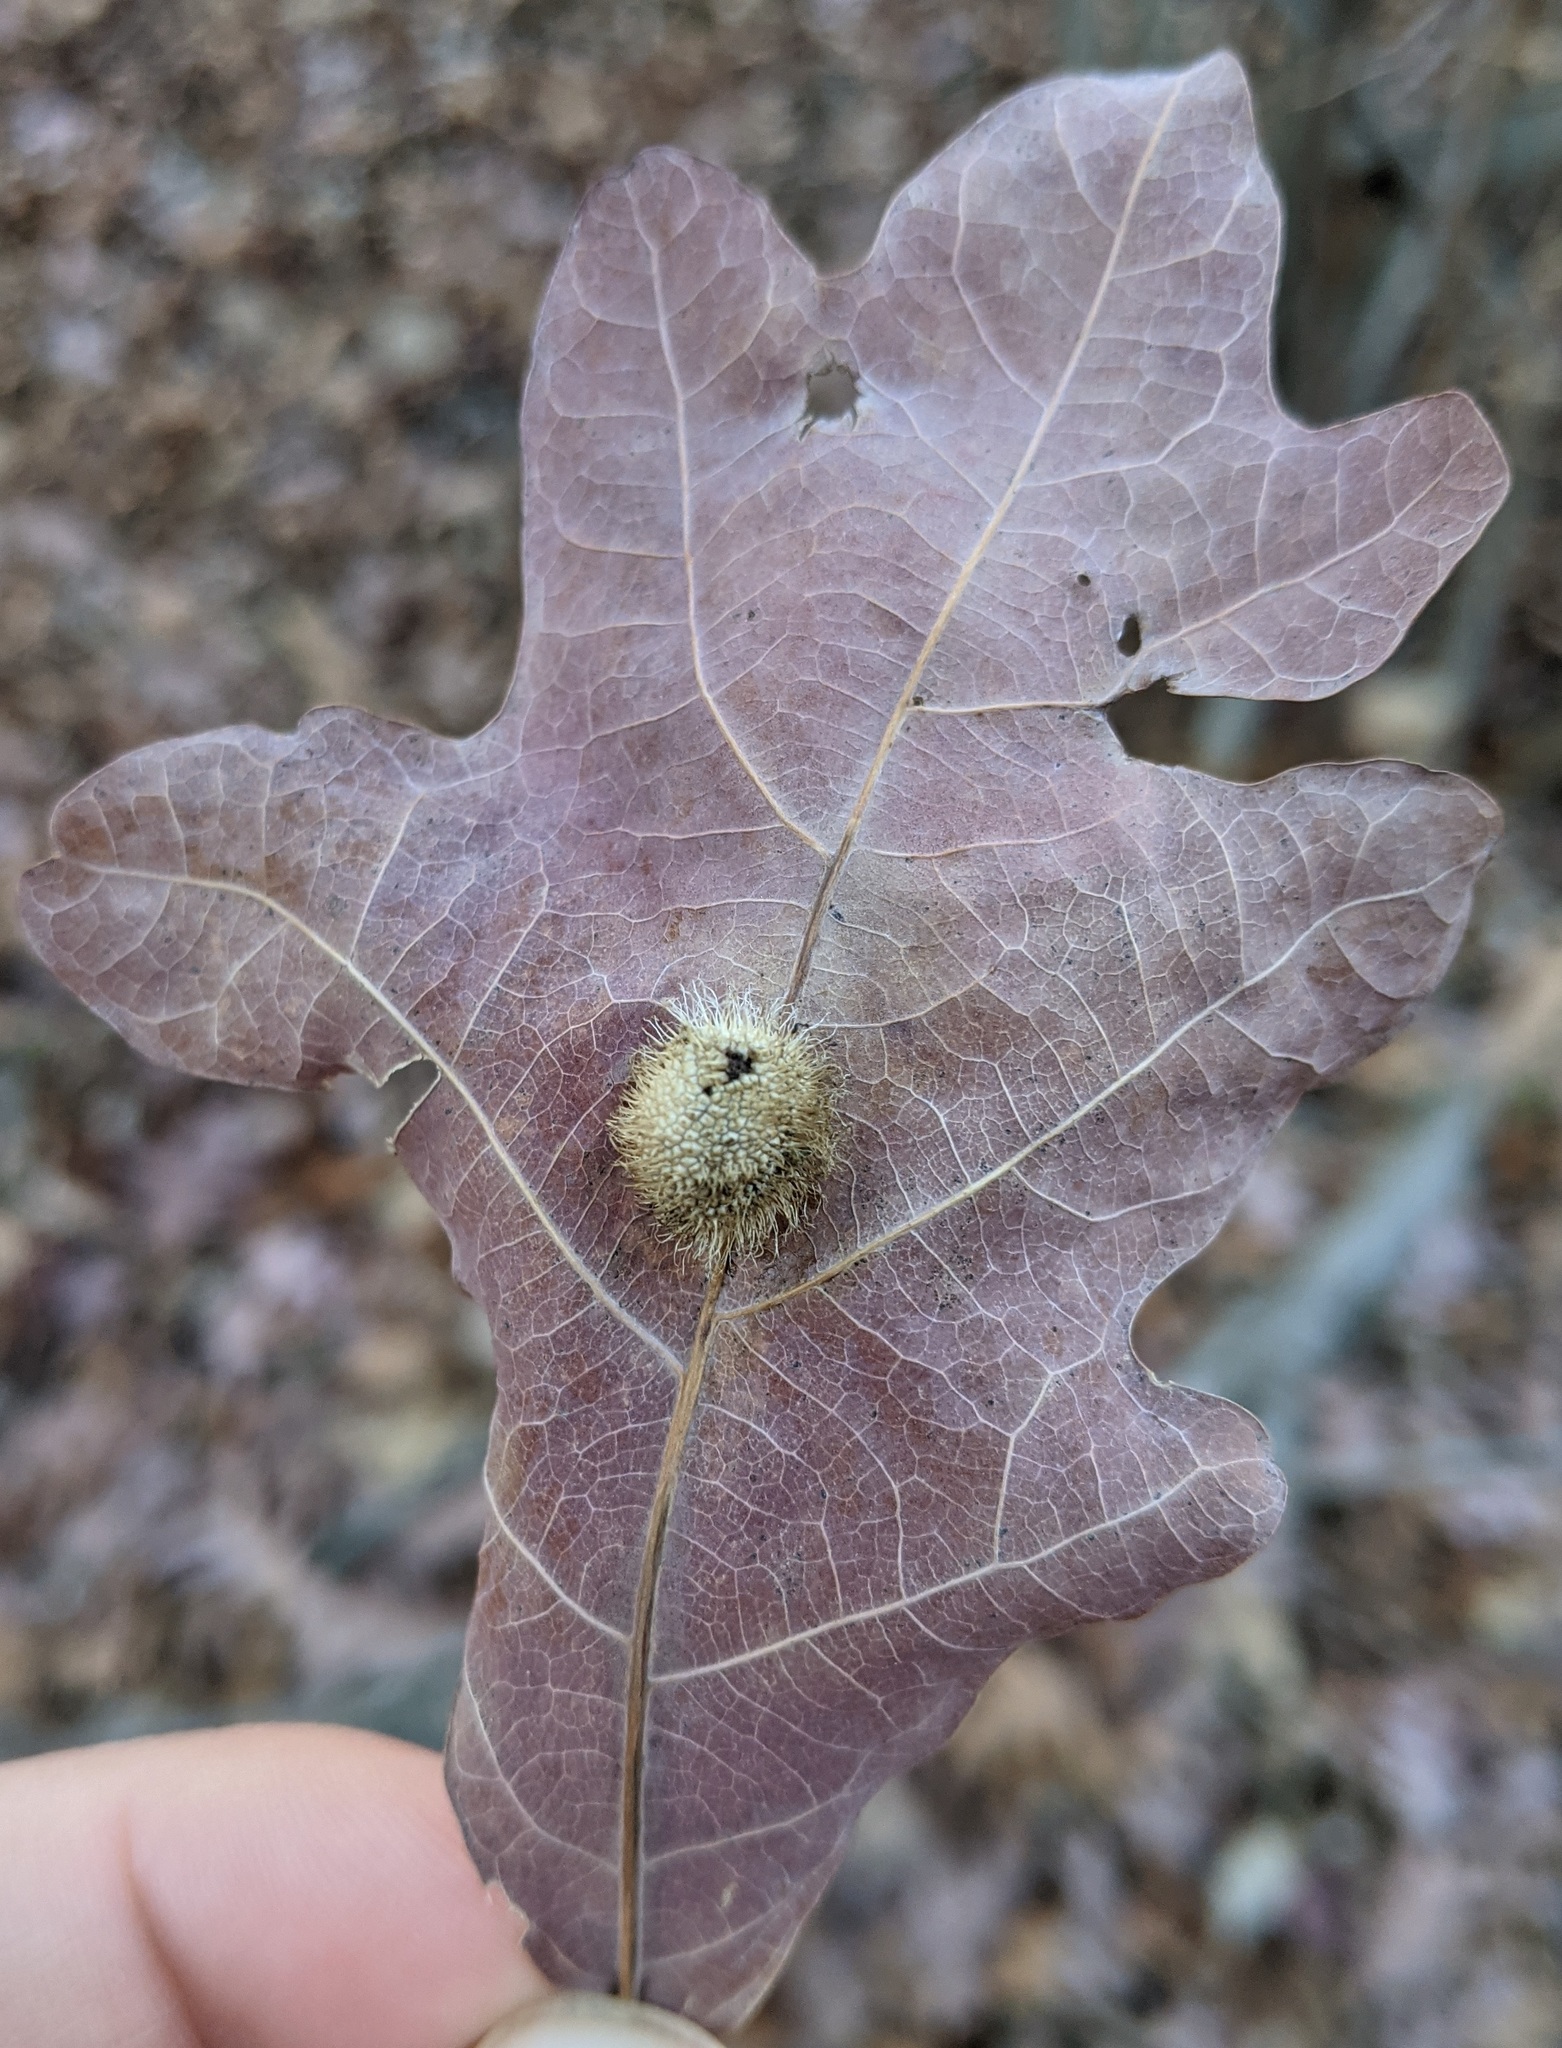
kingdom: Animalia
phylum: Arthropoda
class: Insecta
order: Hymenoptera
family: Cynipidae
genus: Acraspis
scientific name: Acraspis erinacei
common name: Hedgehog gall wasp
